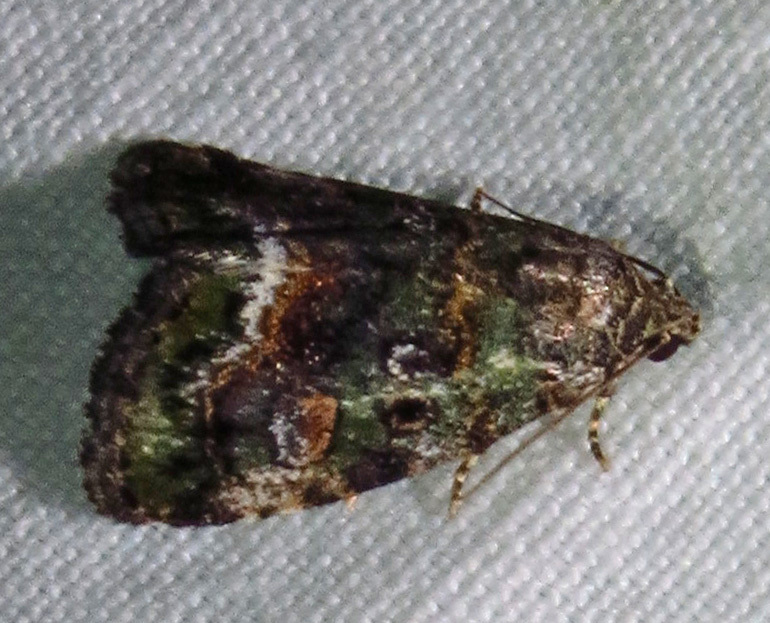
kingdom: Animalia
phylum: Arthropoda
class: Insecta
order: Lepidoptera
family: Noctuidae
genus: Lithacodia
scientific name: Lithacodia musta
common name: Small mossy glyph
